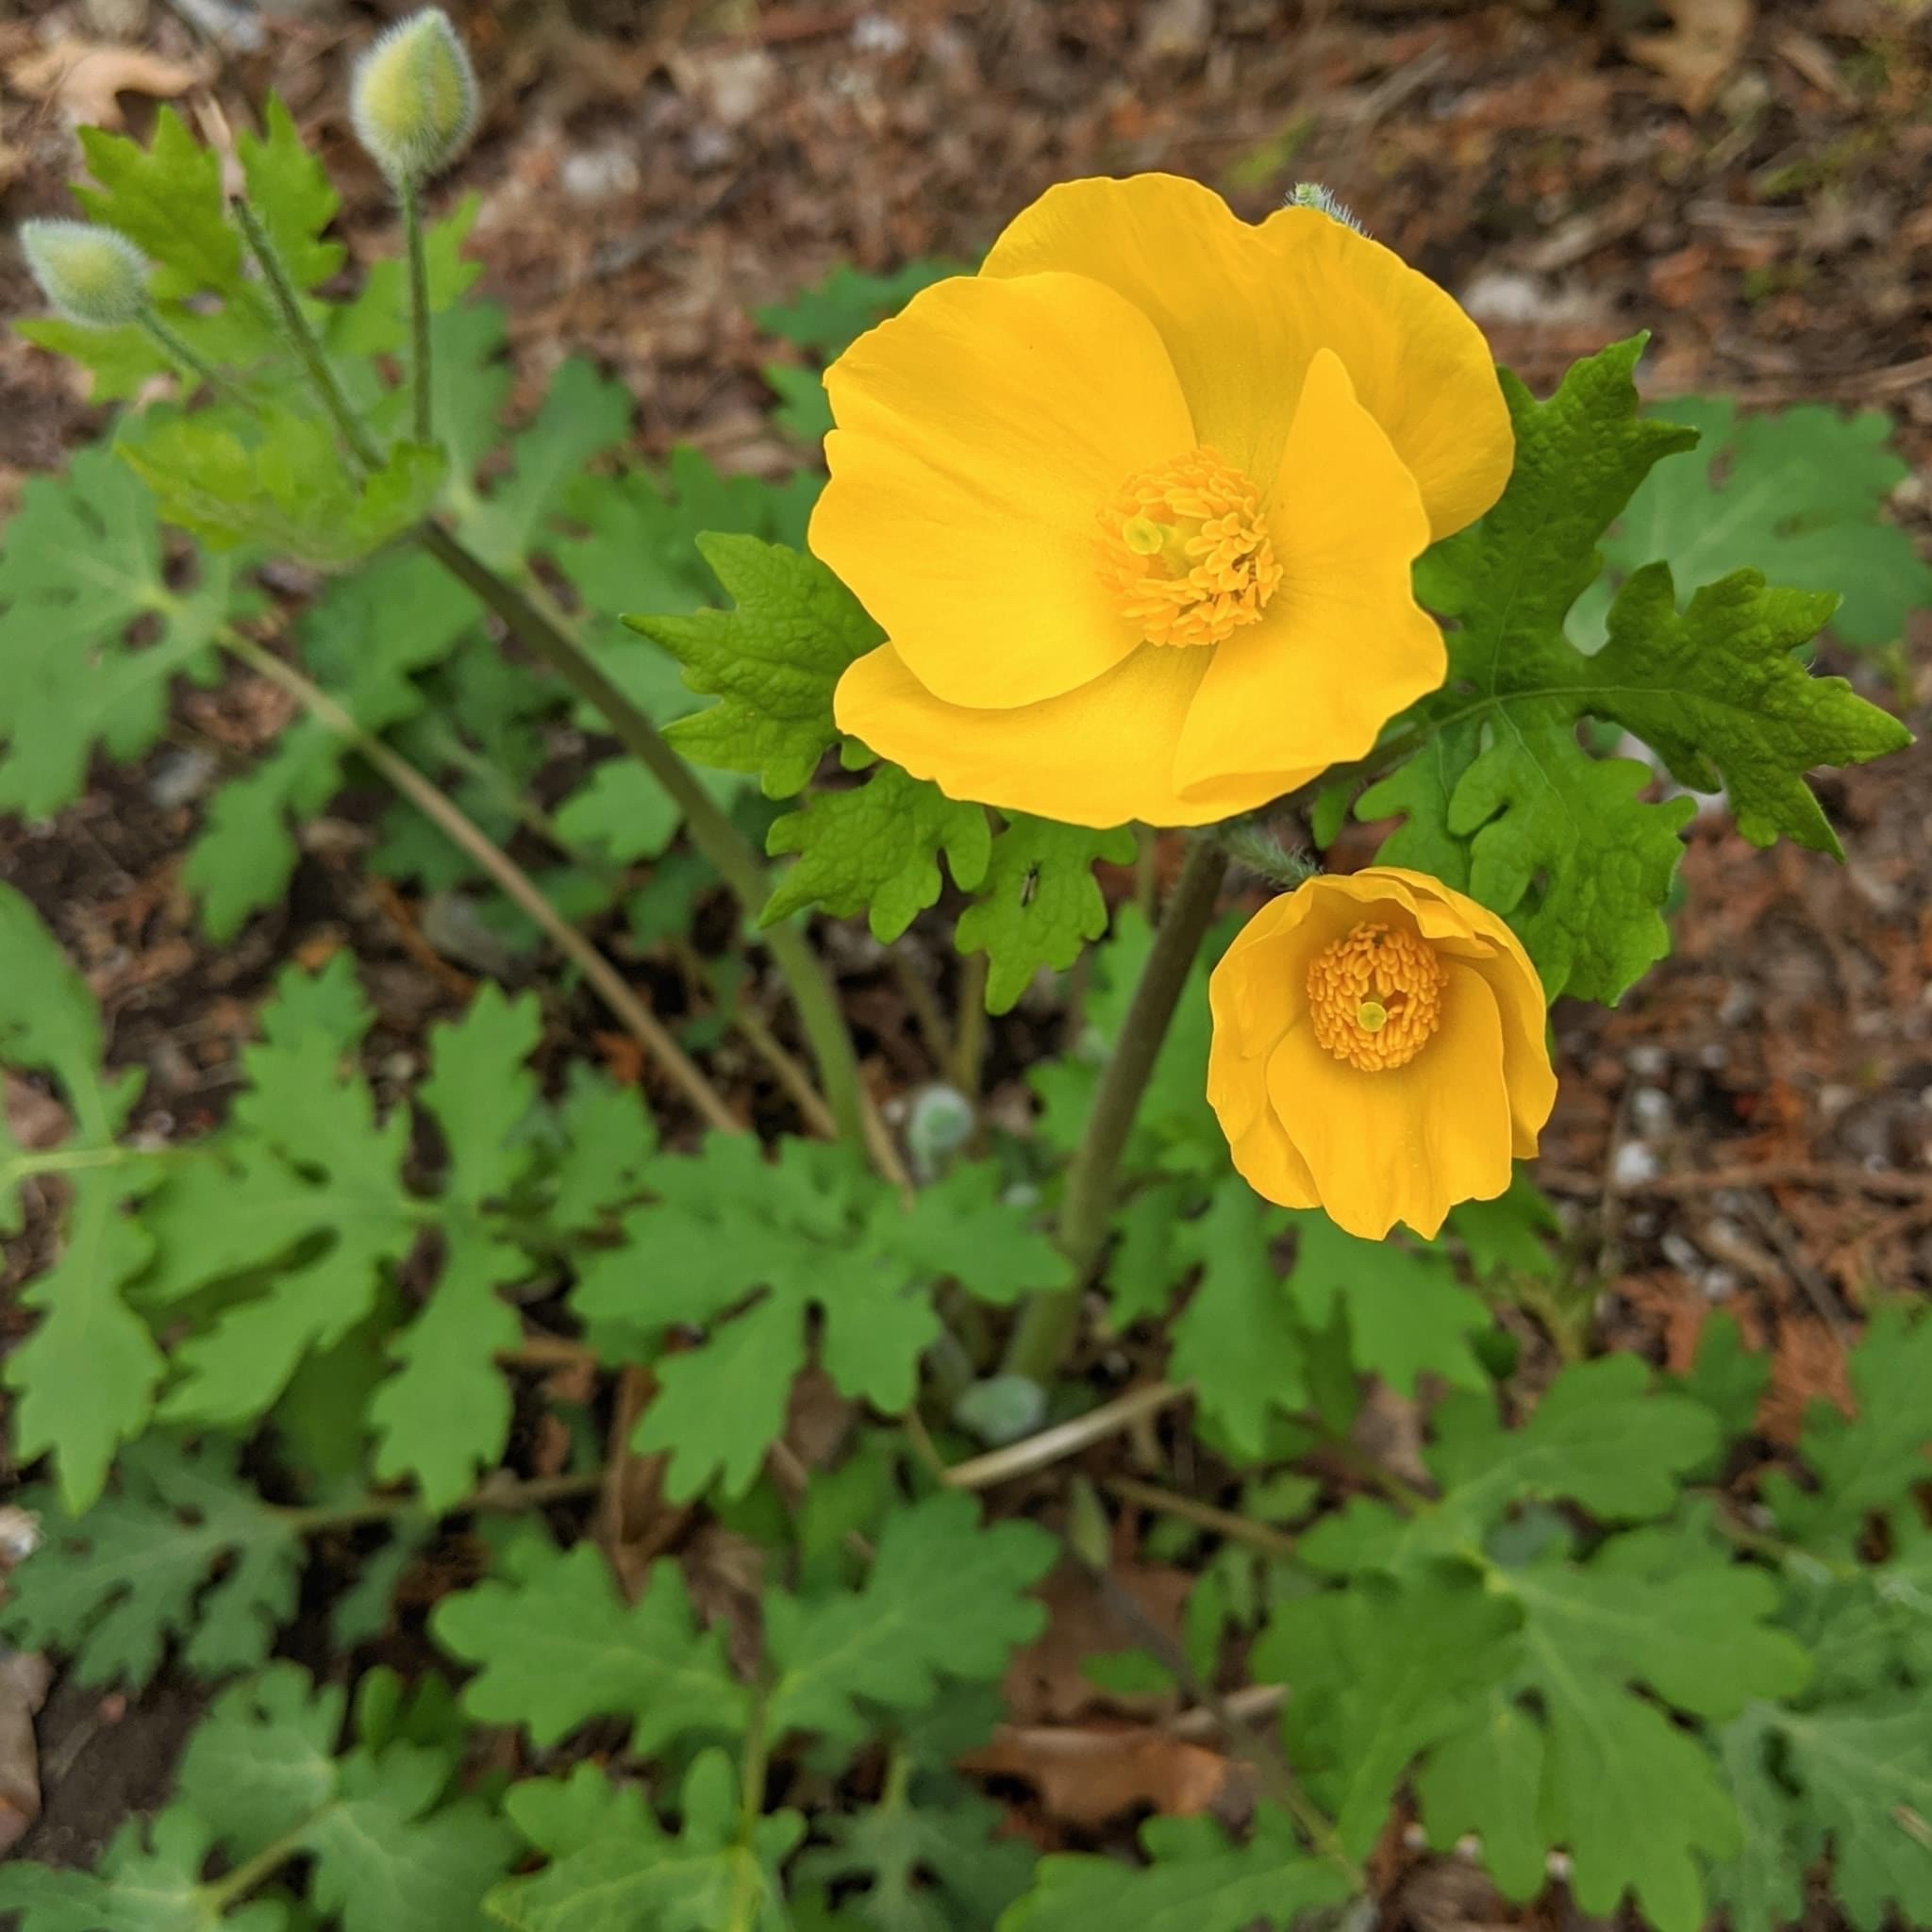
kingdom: Plantae
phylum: Tracheophyta
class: Magnoliopsida
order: Ranunculales
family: Papaveraceae
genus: Stylophorum
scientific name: Stylophorum diphyllum
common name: Celandine poppy
